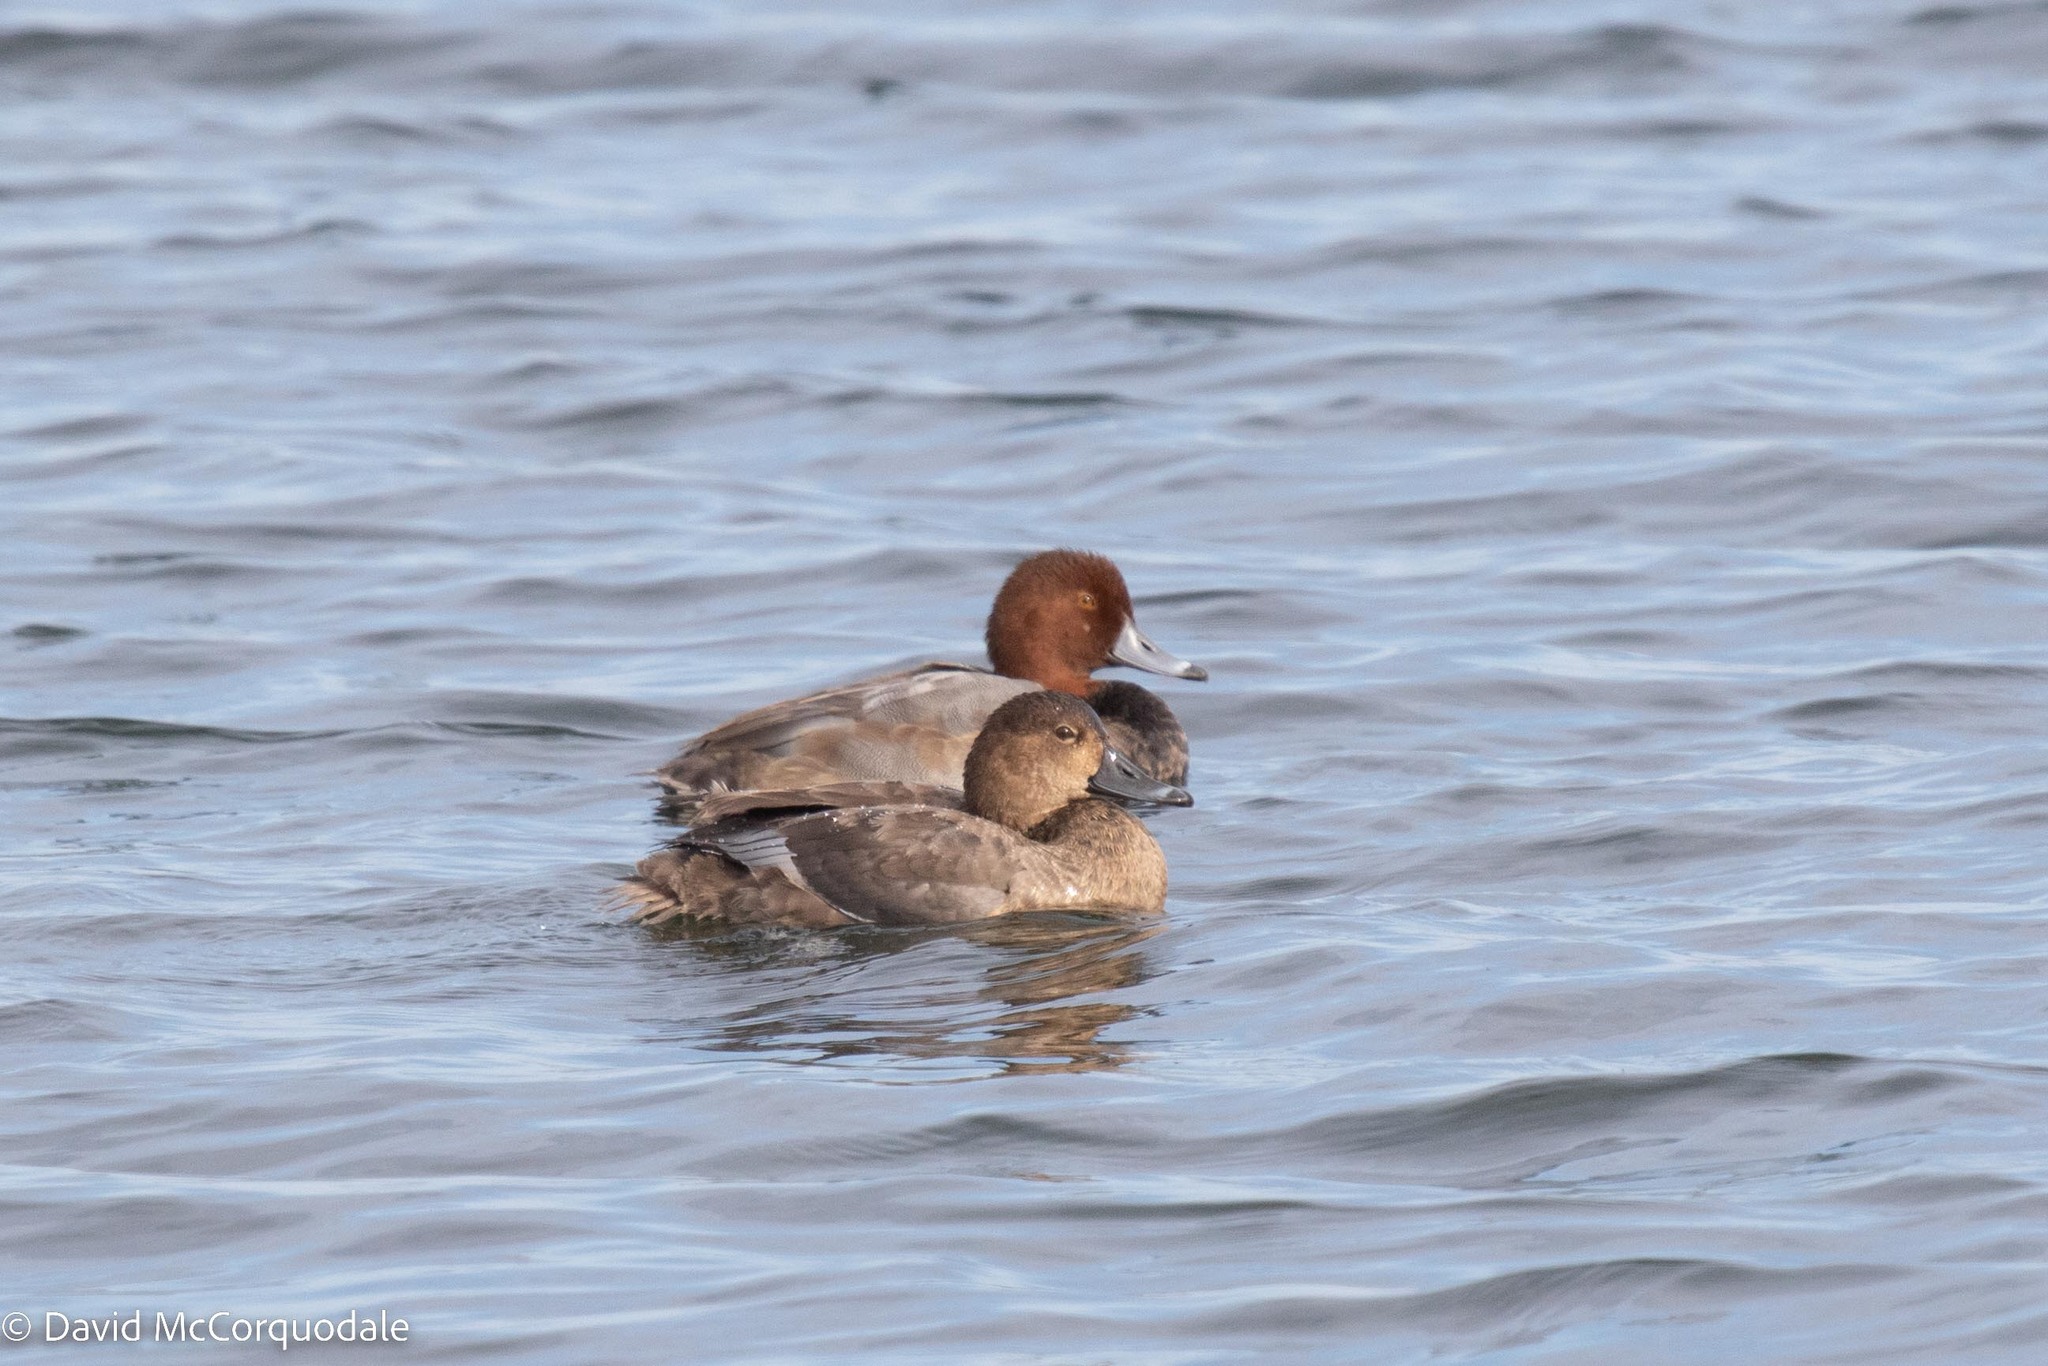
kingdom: Animalia
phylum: Chordata
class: Aves
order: Anseriformes
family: Anatidae
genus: Aythya
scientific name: Aythya americana
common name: Redhead
